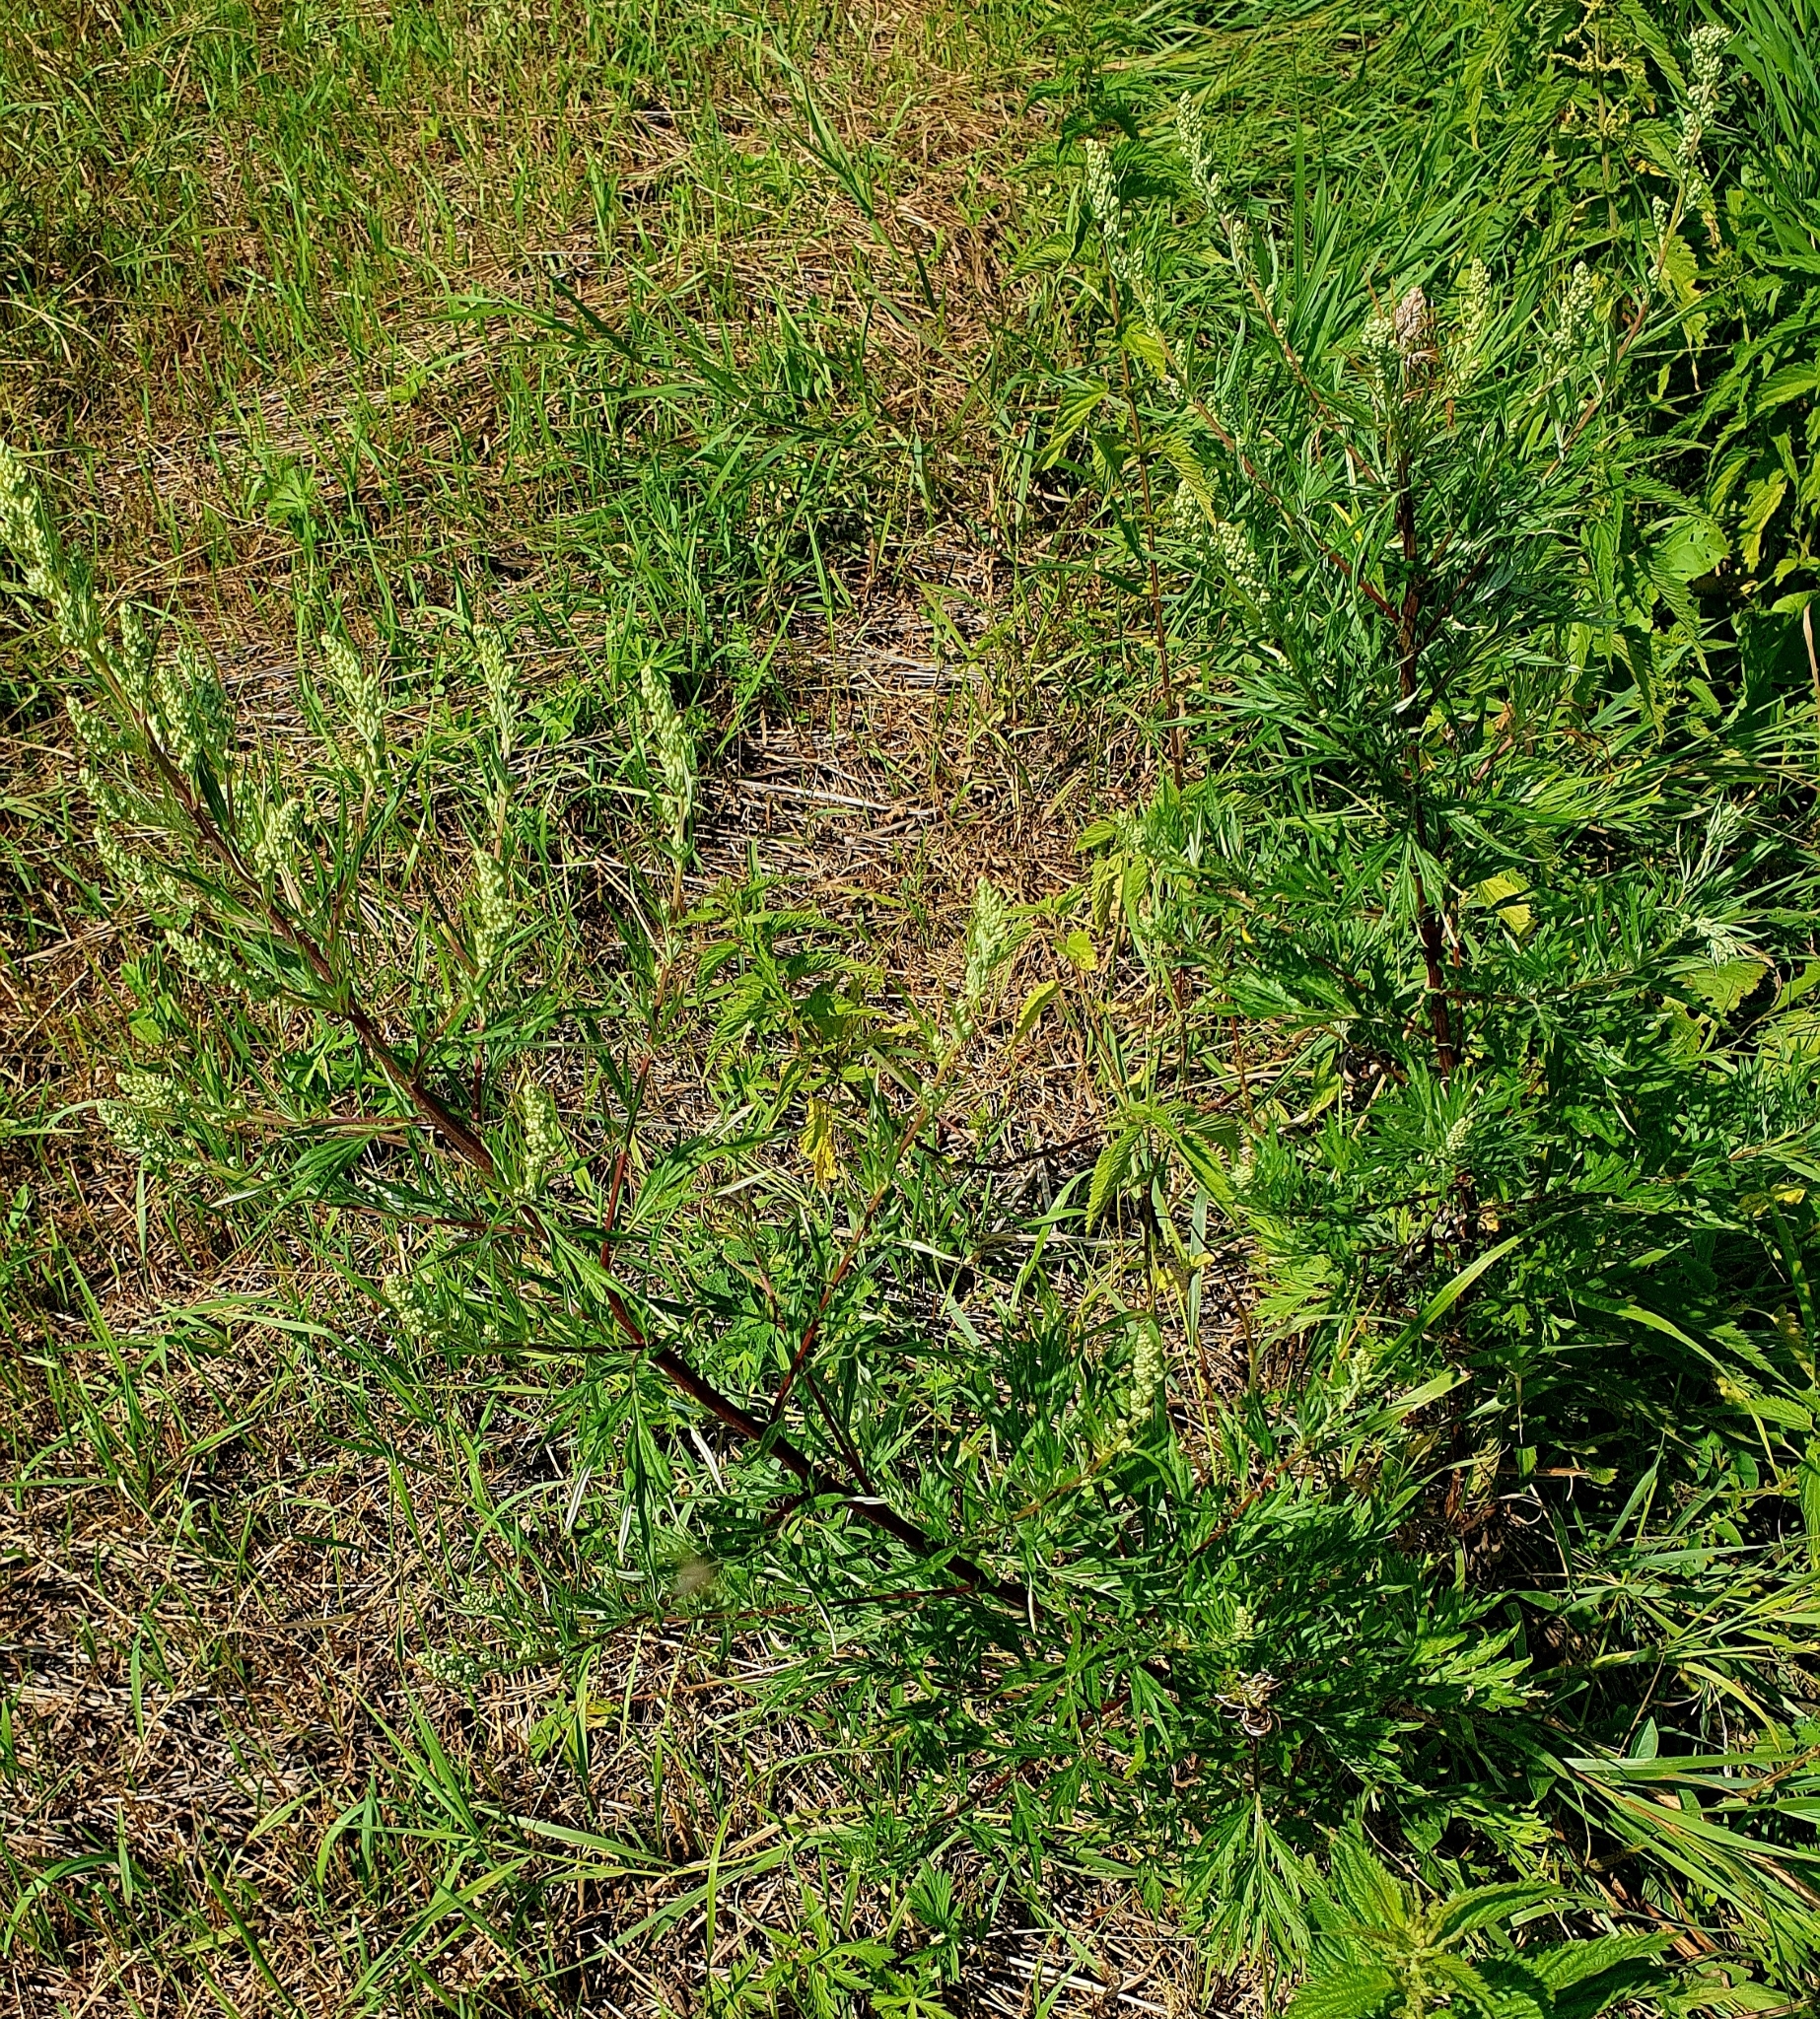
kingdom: Plantae
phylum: Tracheophyta
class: Magnoliopsida
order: Asterales
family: Asteraceae
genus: Artemisia
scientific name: Artemisia vulgaris
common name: Mugwort
